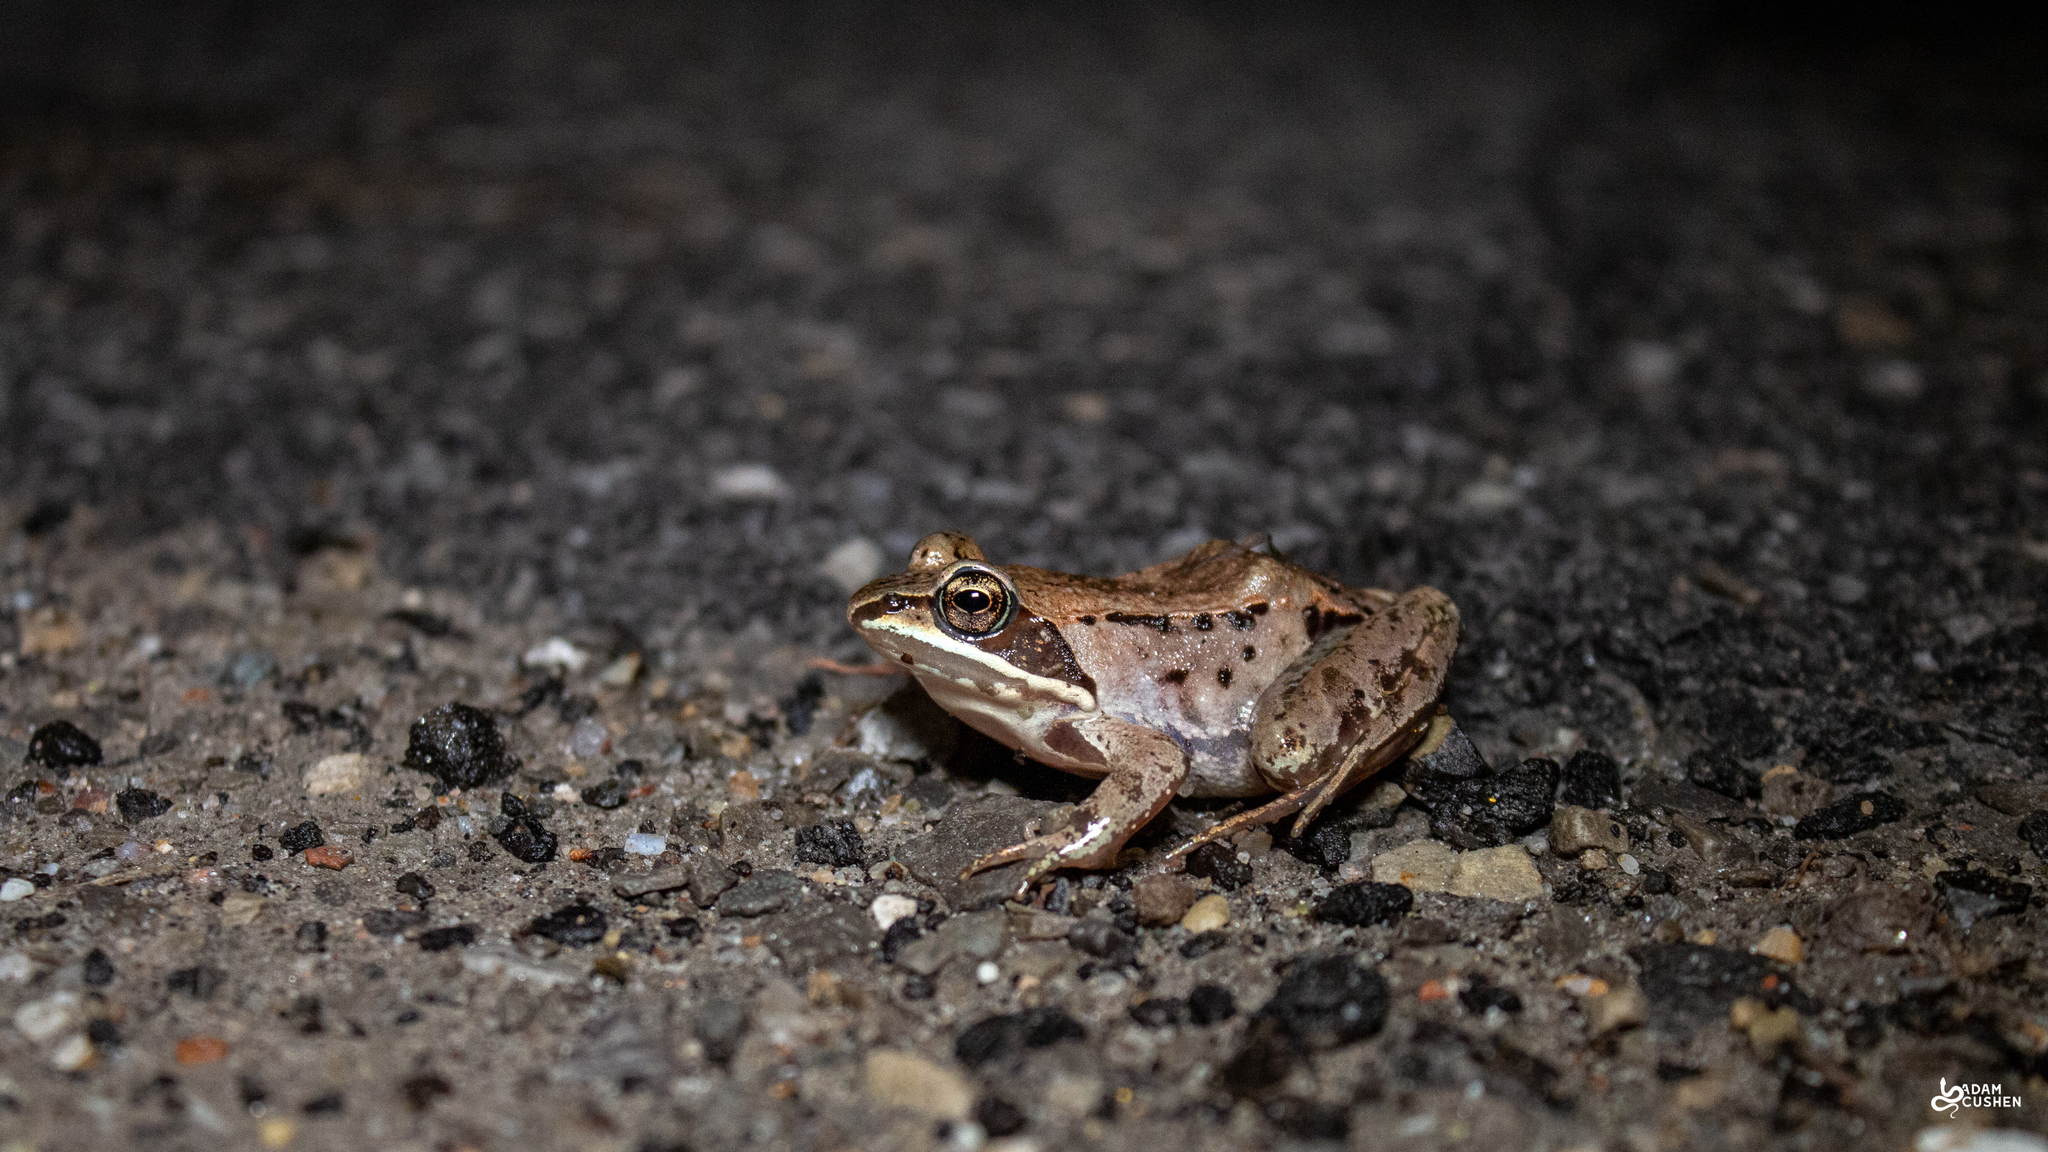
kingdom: Animalia
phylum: Chordata
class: Amphibia
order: Anura
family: Ranidae
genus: Lithobates
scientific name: Lithobates sylvaticus
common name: Wood frog
